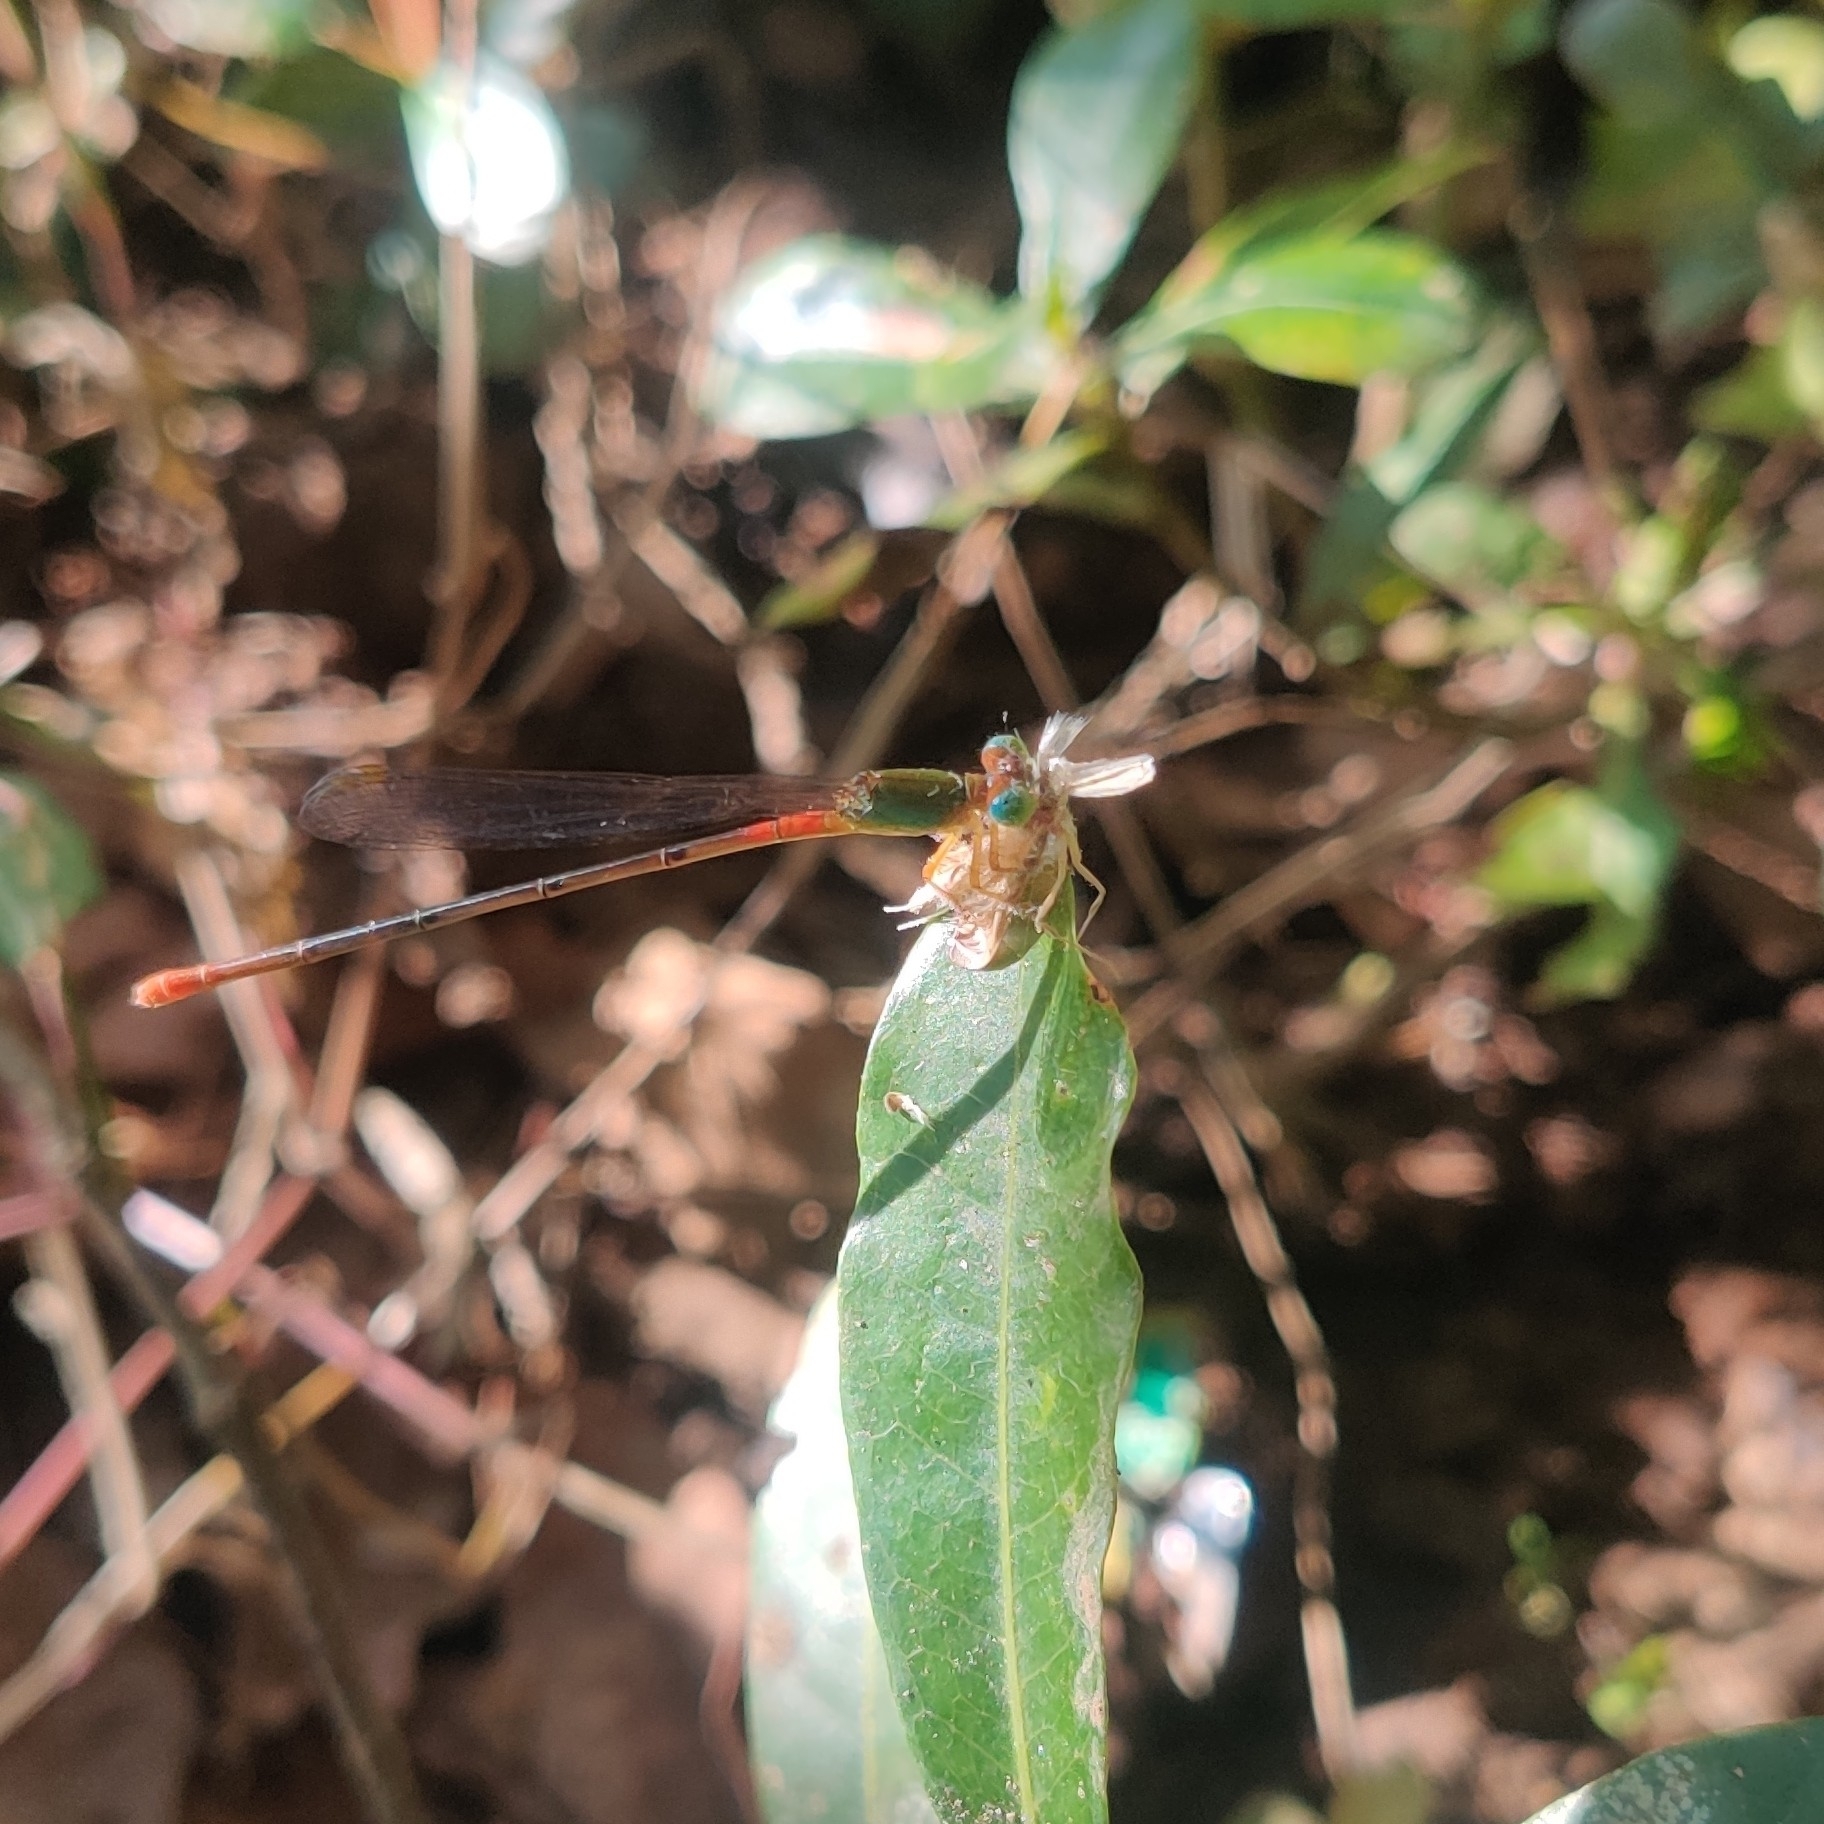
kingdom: Animalia
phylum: Arthropoda
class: Insecta
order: Odonata
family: Coenagrionidae
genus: Ceriagrion
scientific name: Ceriagrion cerinorubellum
